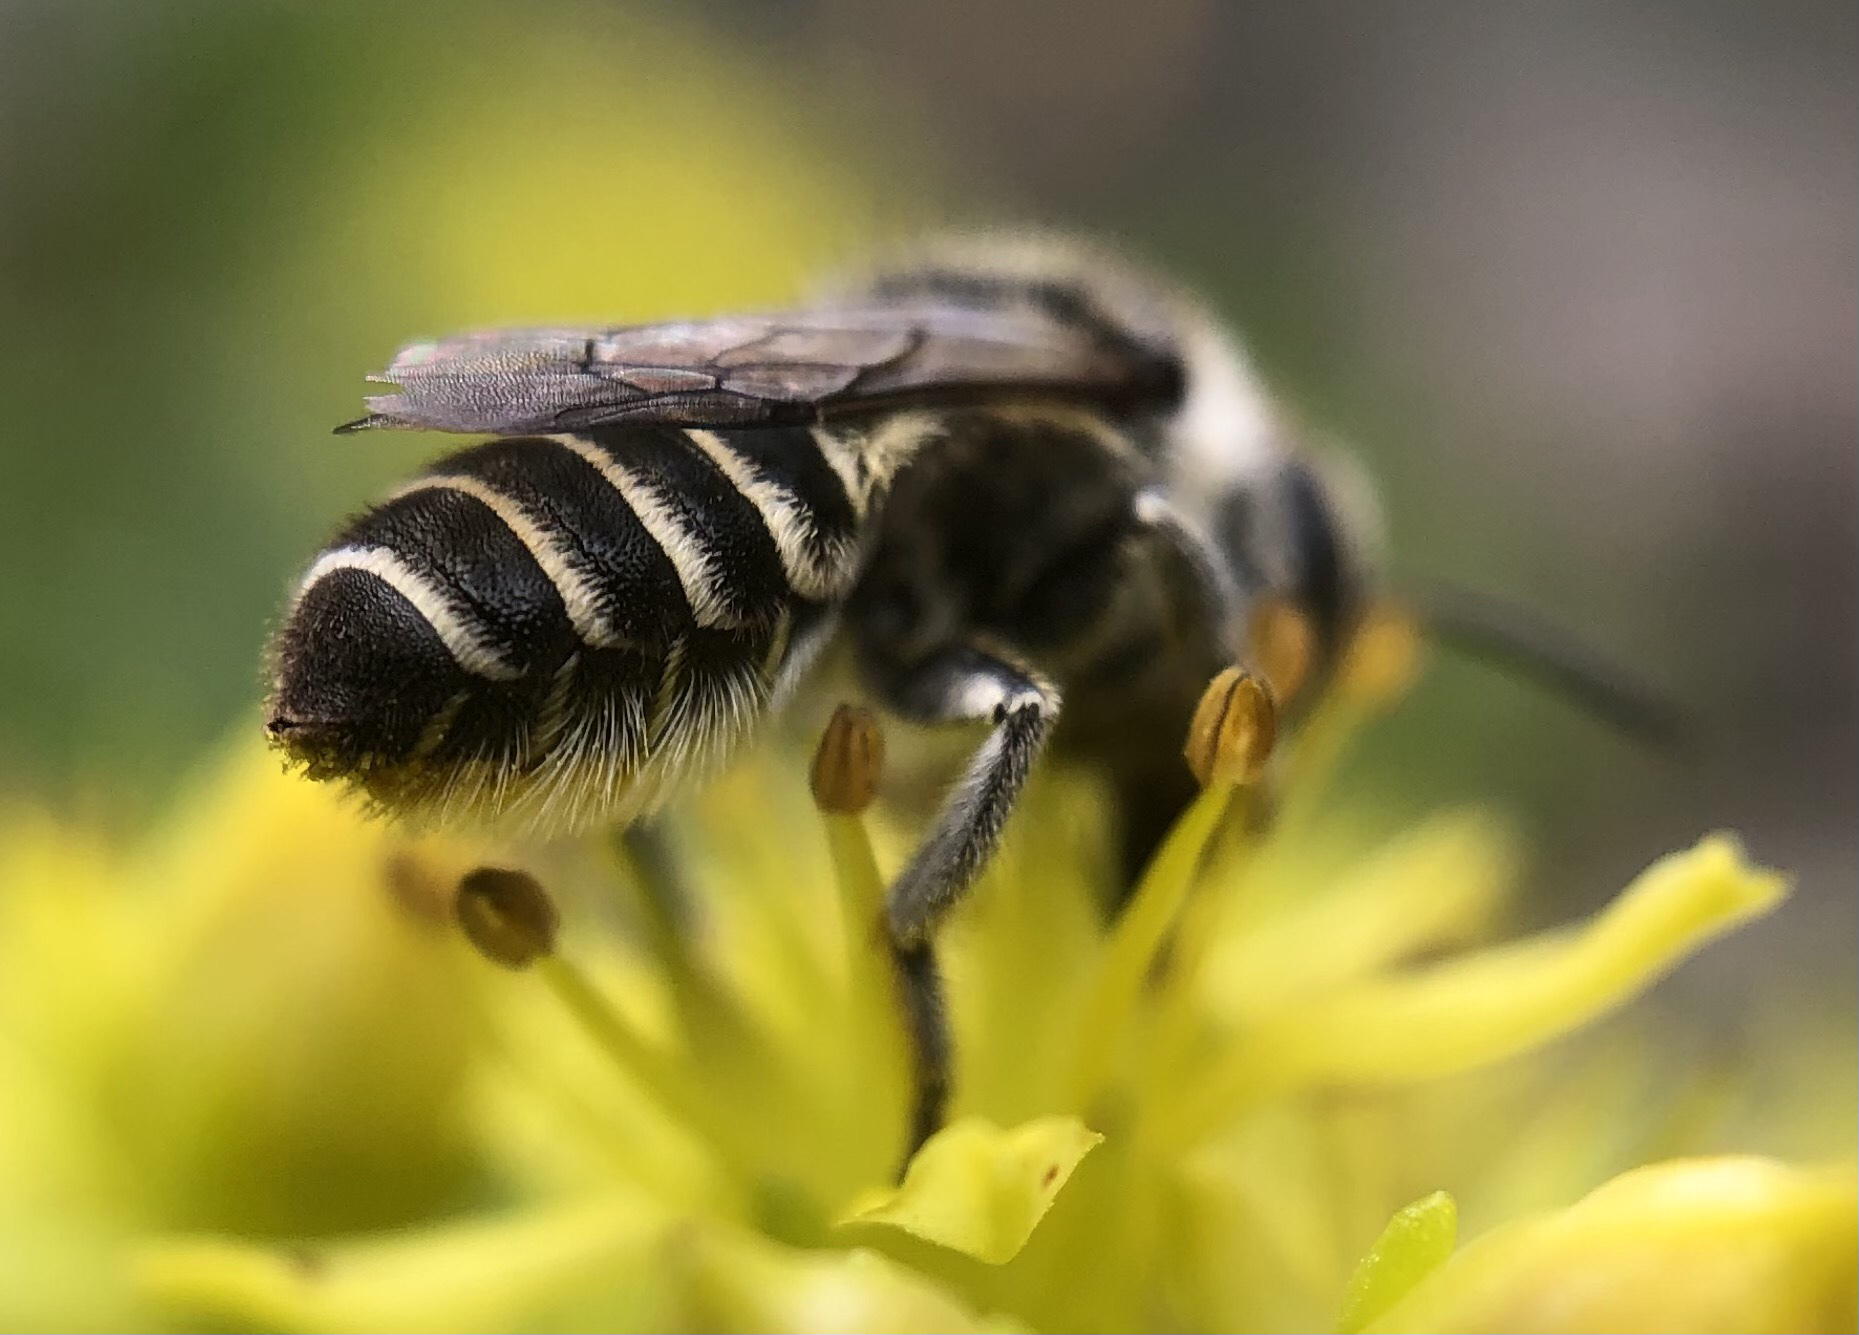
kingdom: Animalia
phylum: Arthropoda
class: Insecta
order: Hymenoptera
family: Megachilidae
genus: Megachile
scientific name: Megachile rotundata
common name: Alfalfa leafcutting bee
